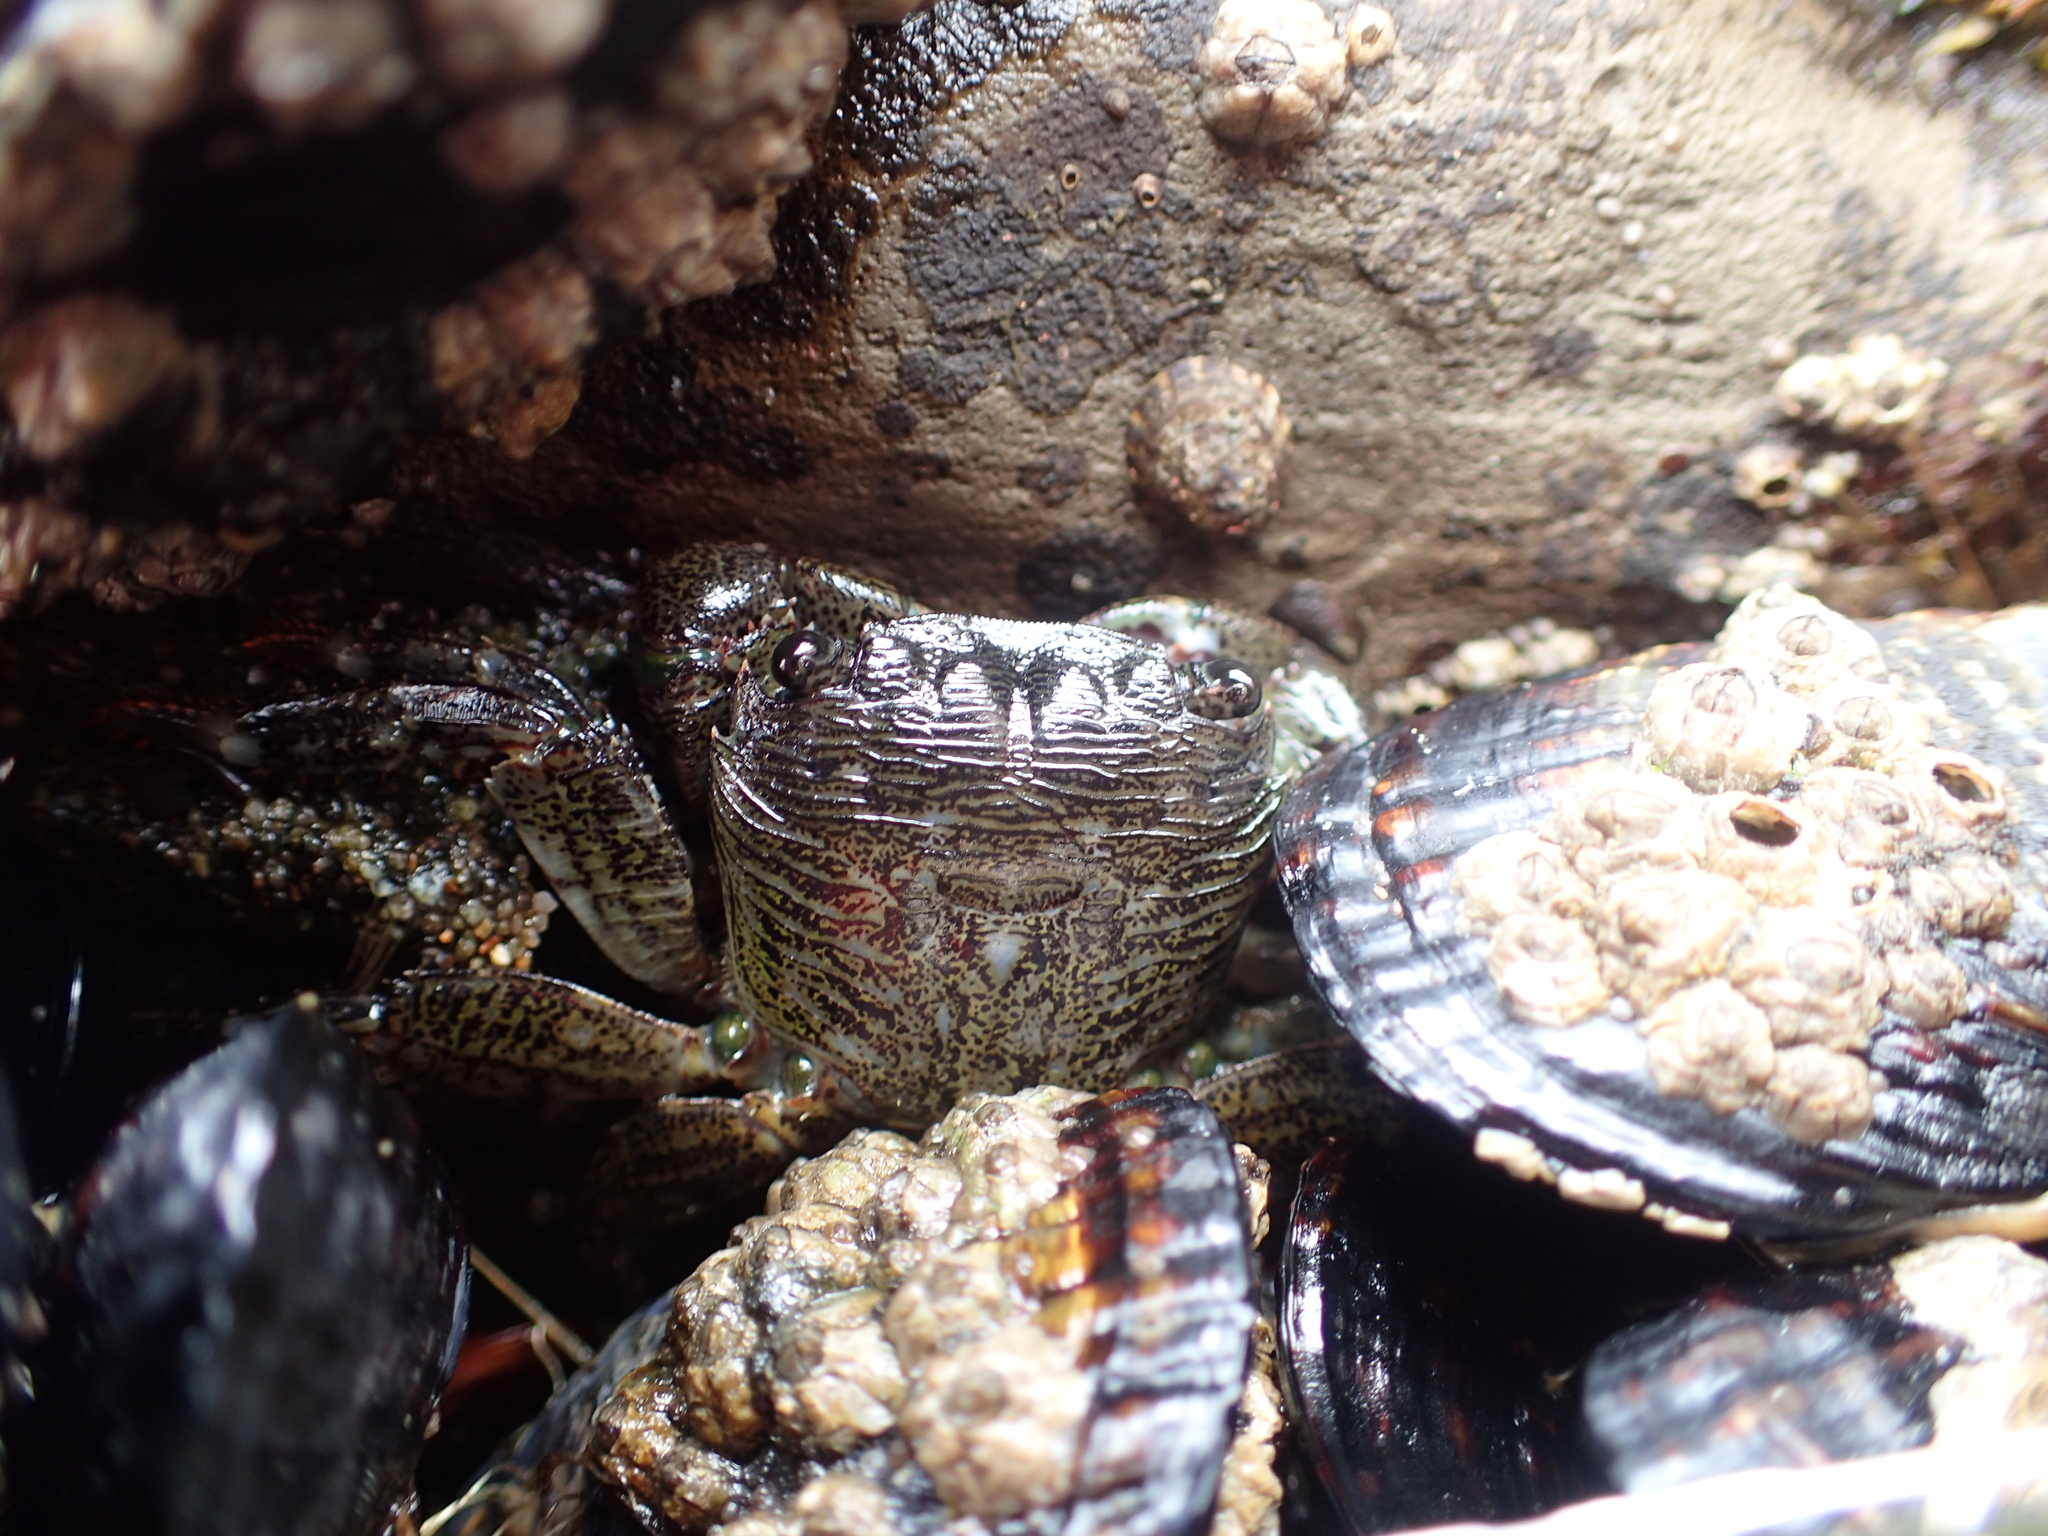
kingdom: Animalia
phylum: Arthropoda
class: Malacostraca
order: Decapoda
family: Grapsidae
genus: Pachygrapsus
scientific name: Pachygrapsus crassipes
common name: Striped shore crab
